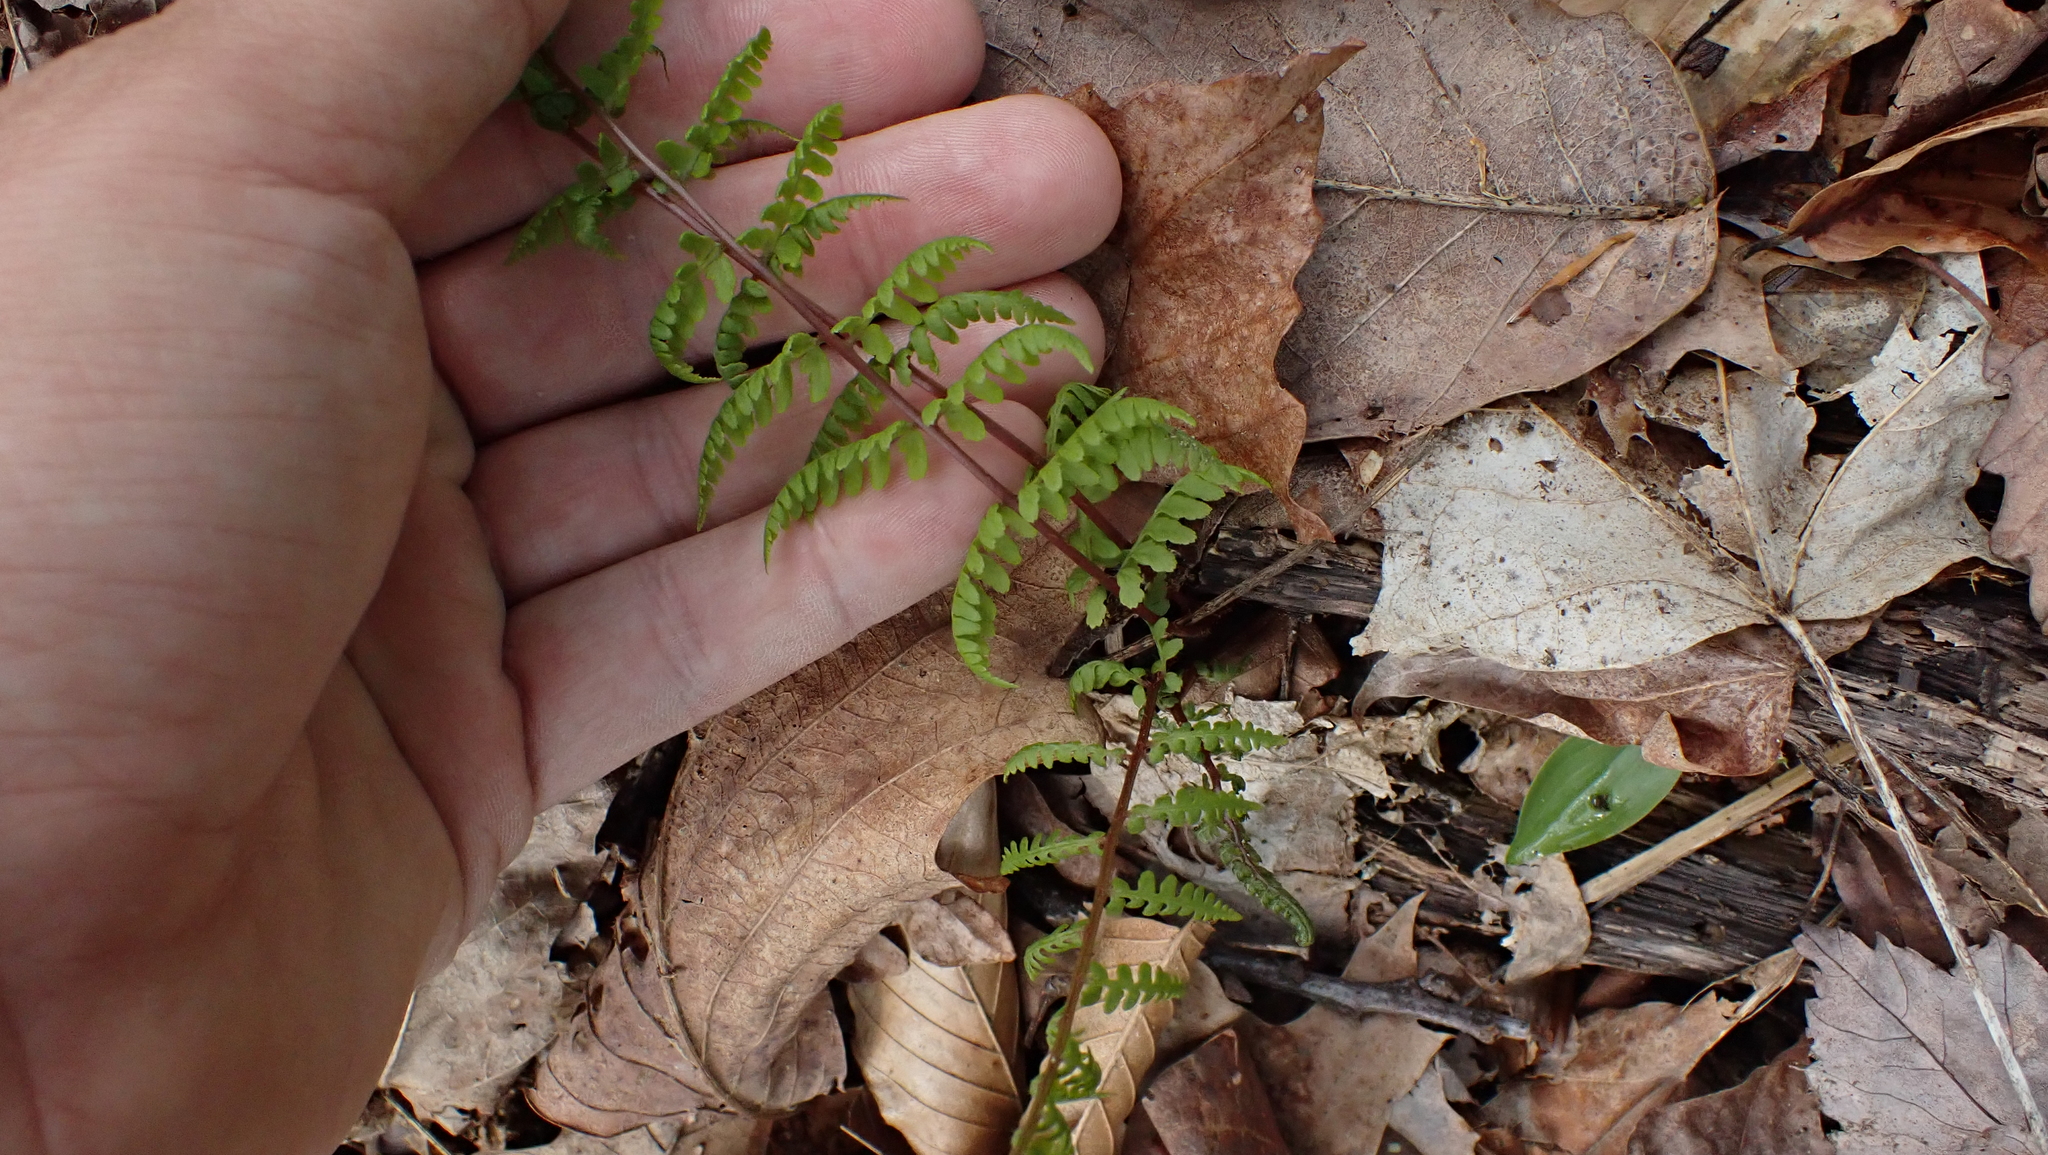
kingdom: Plantae
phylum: Tracheophyta
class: Polypodiopsida
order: Polypodiales
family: Athyriaceae
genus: Athyrium
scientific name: Athyrium asplenioides
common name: Southern lady fern
